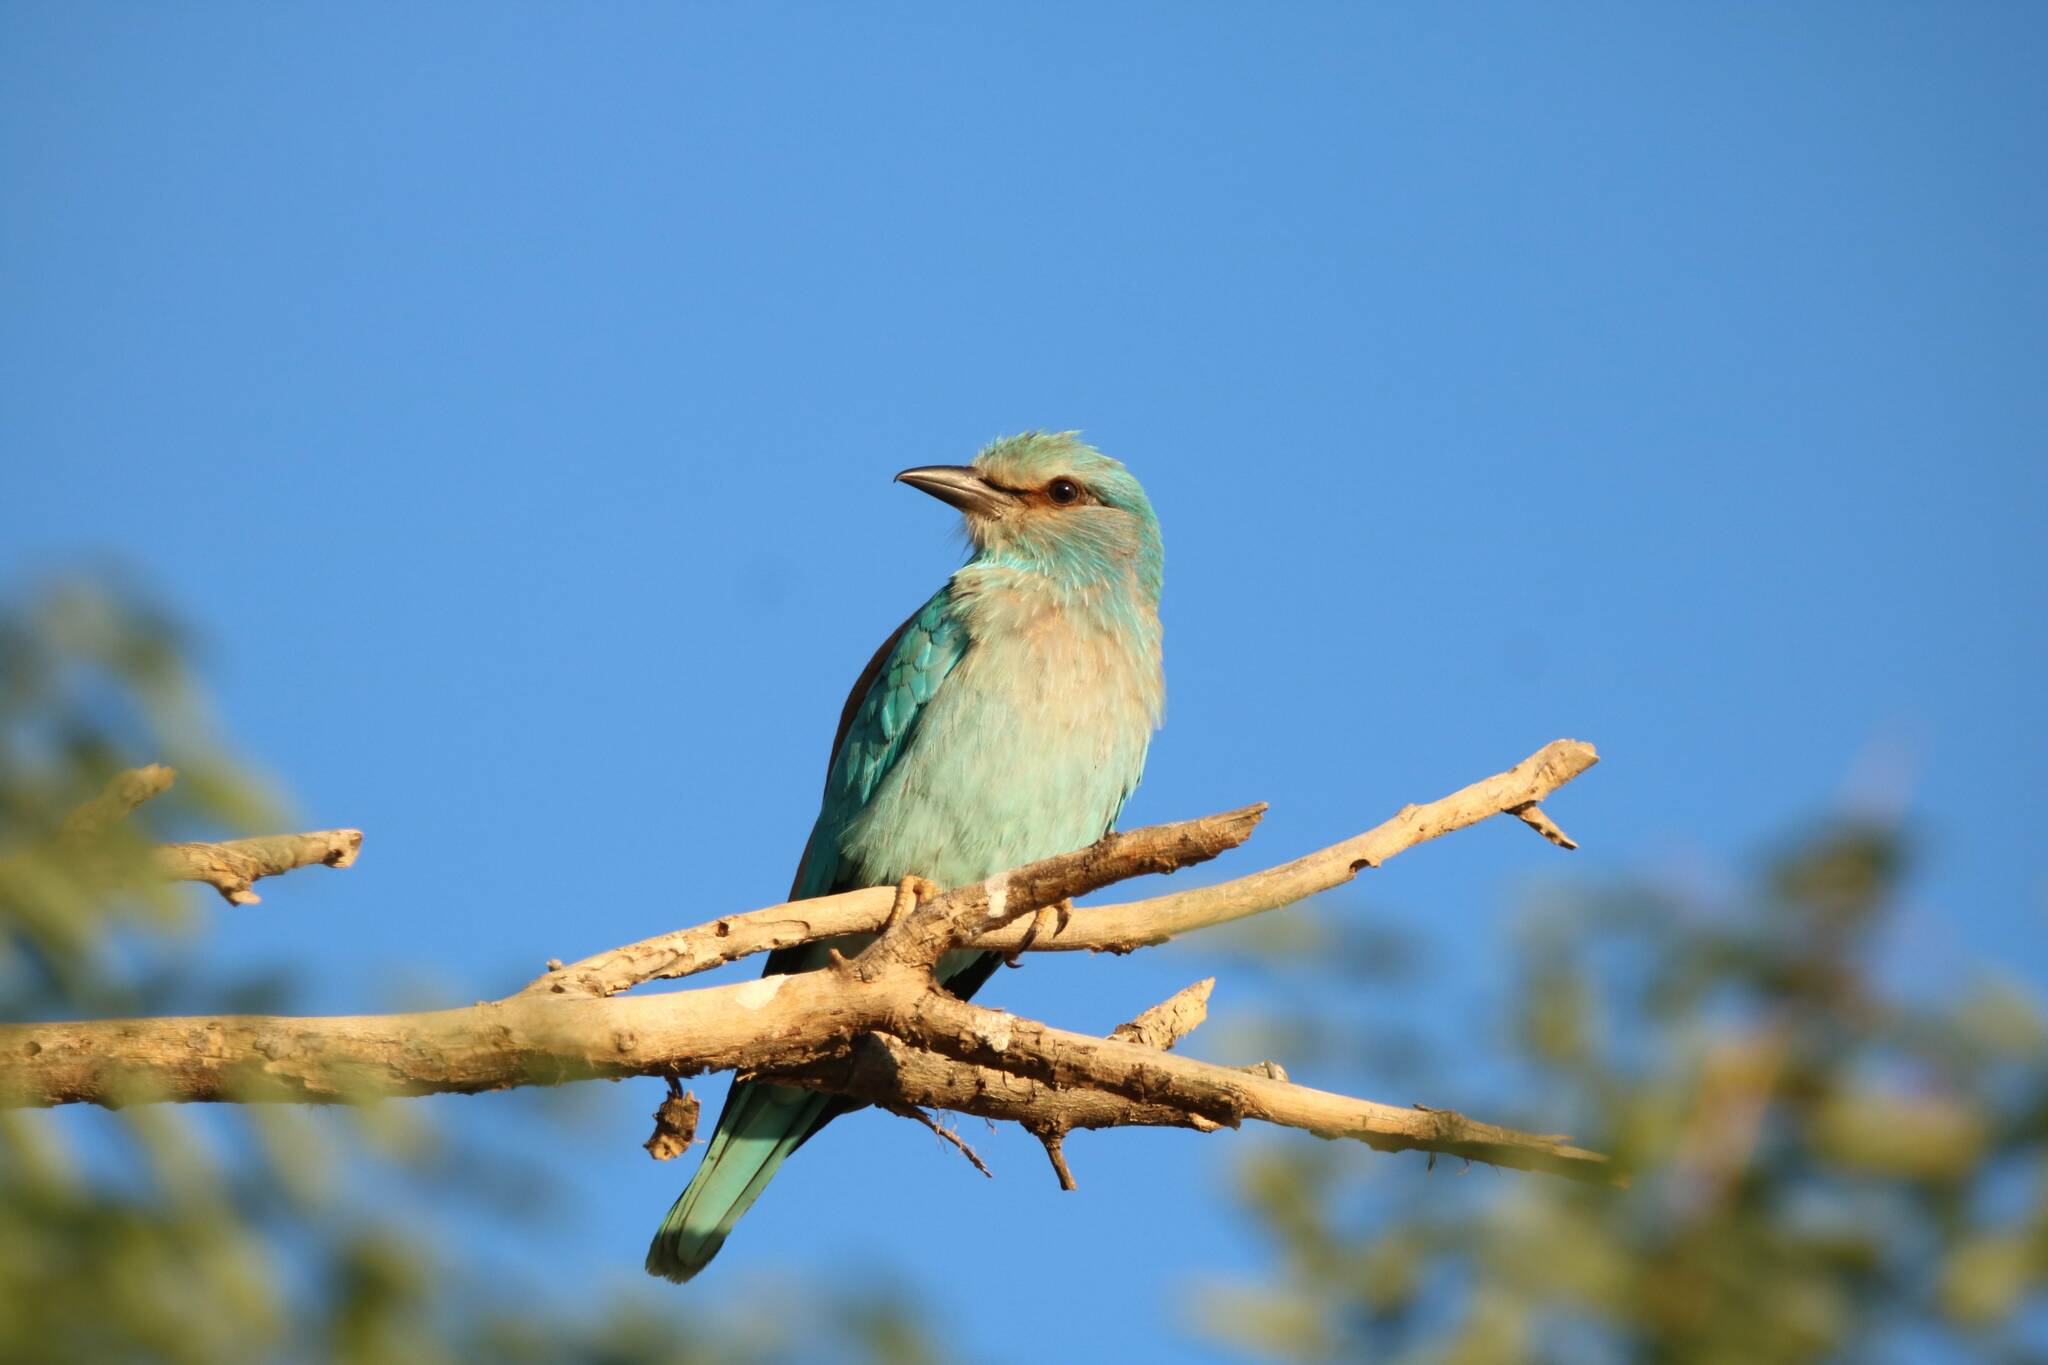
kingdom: Animalia
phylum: Chordata
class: Aves
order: Coraciiformes
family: Coraciidae
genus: Coracias
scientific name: Coracias garrulus
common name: European roller
